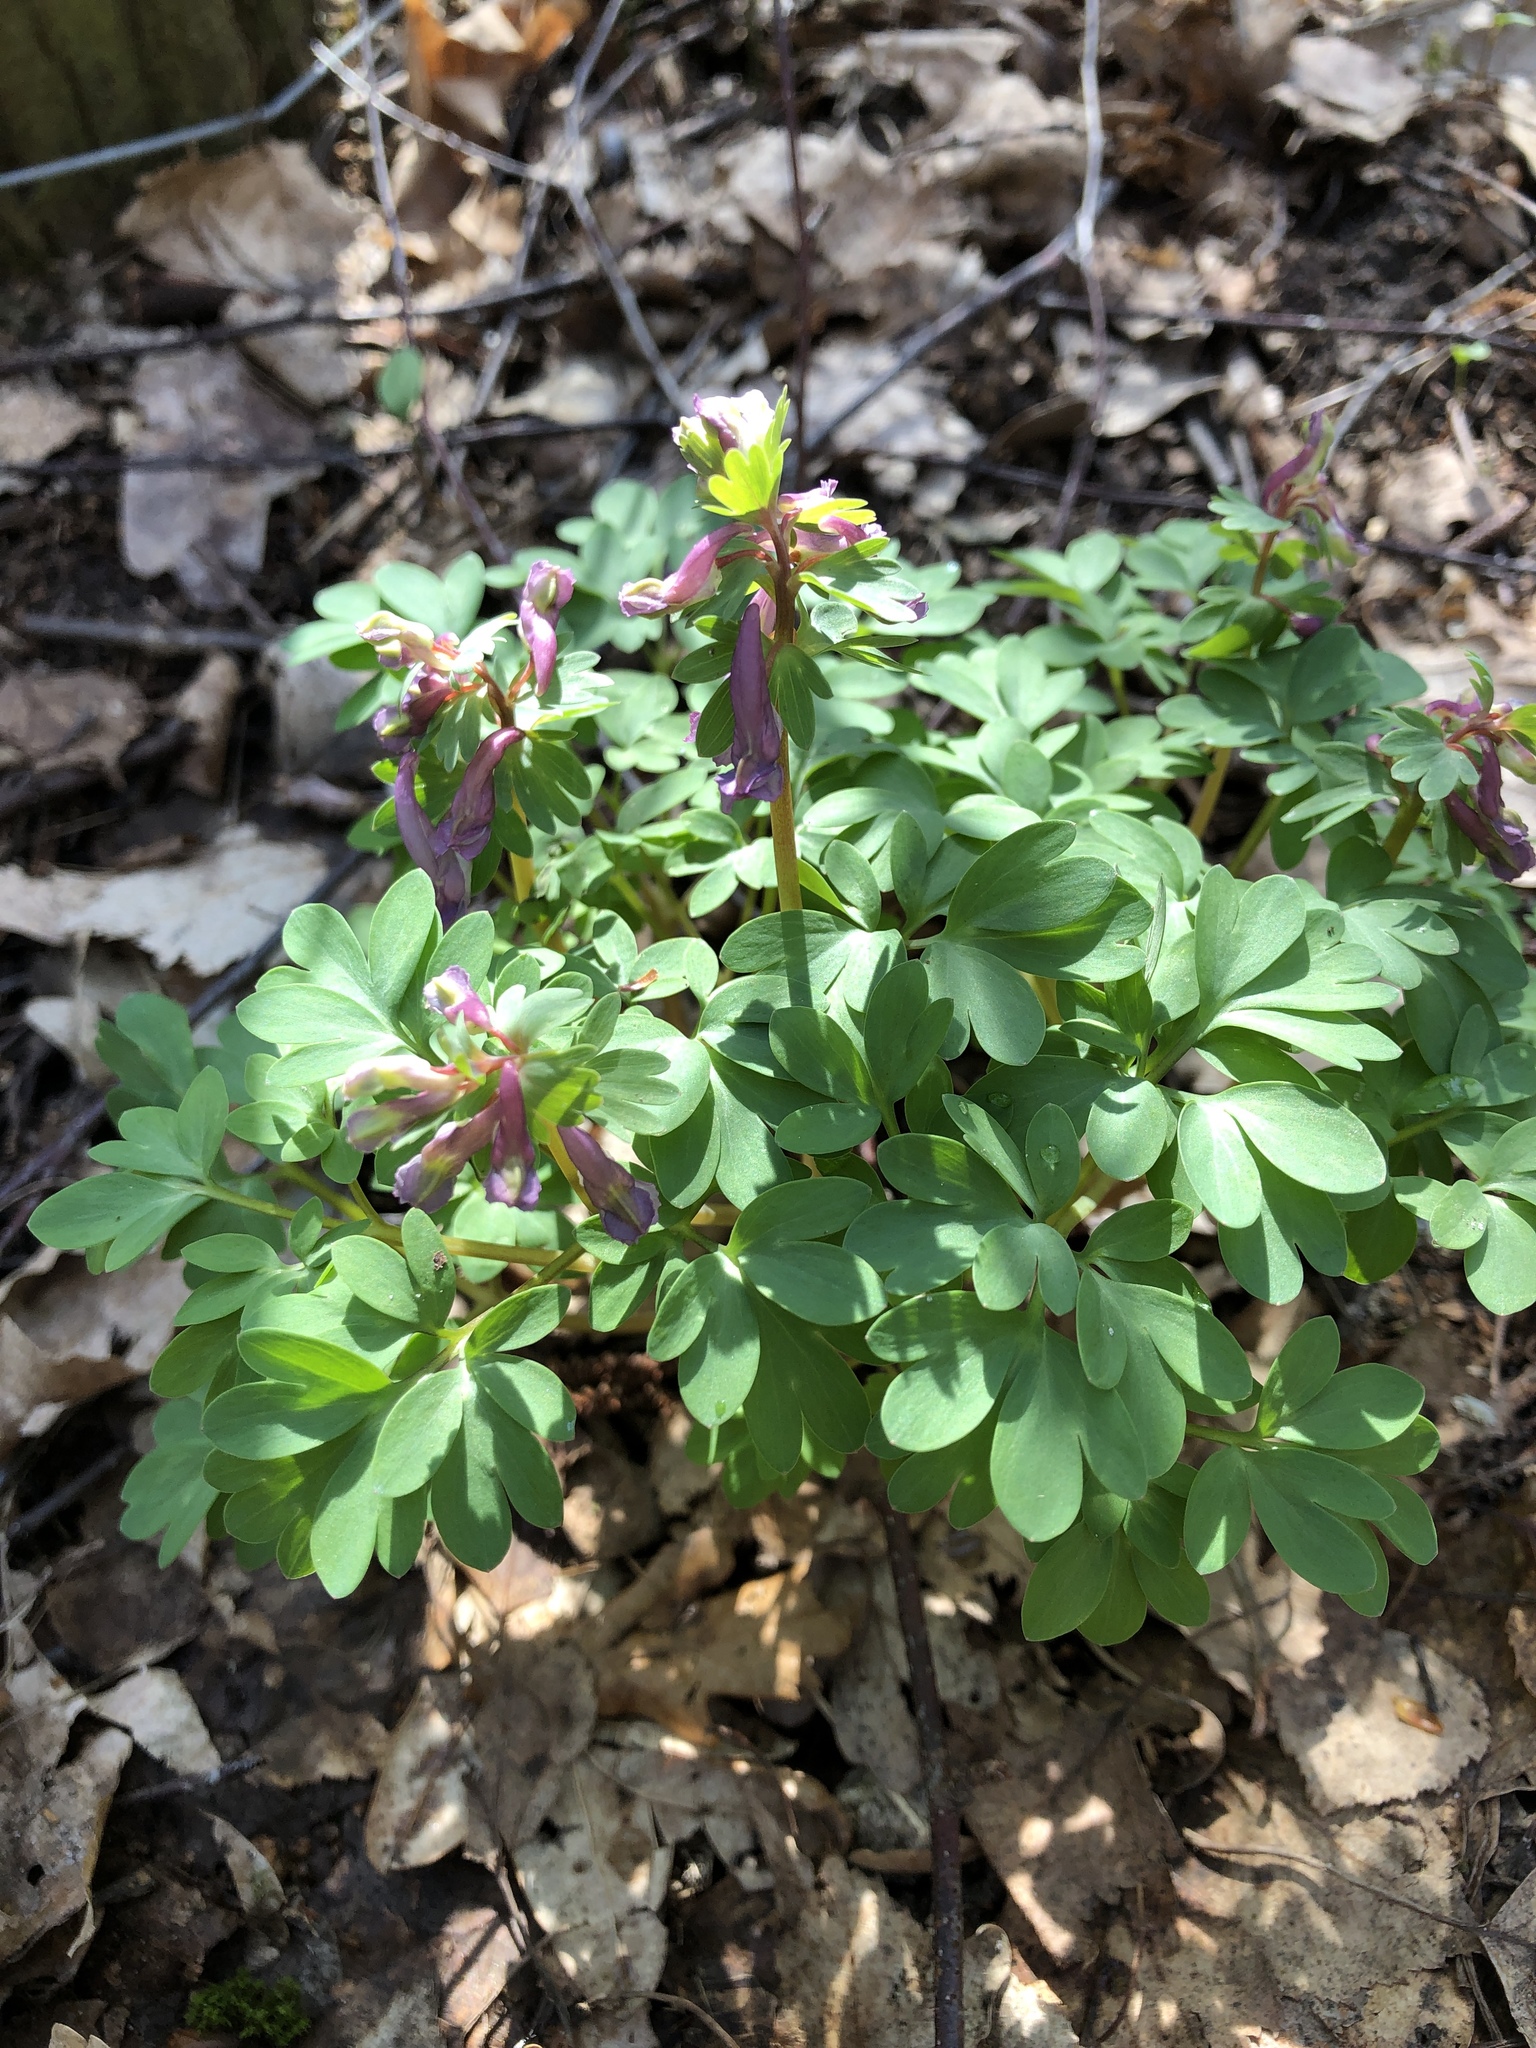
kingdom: Plantae
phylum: Tracheophyta
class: Magnoliopsida
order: Ranunculales
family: Papaveraceae
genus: Corydalis
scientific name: Corydalis solida
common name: Bird-in-a-bush
